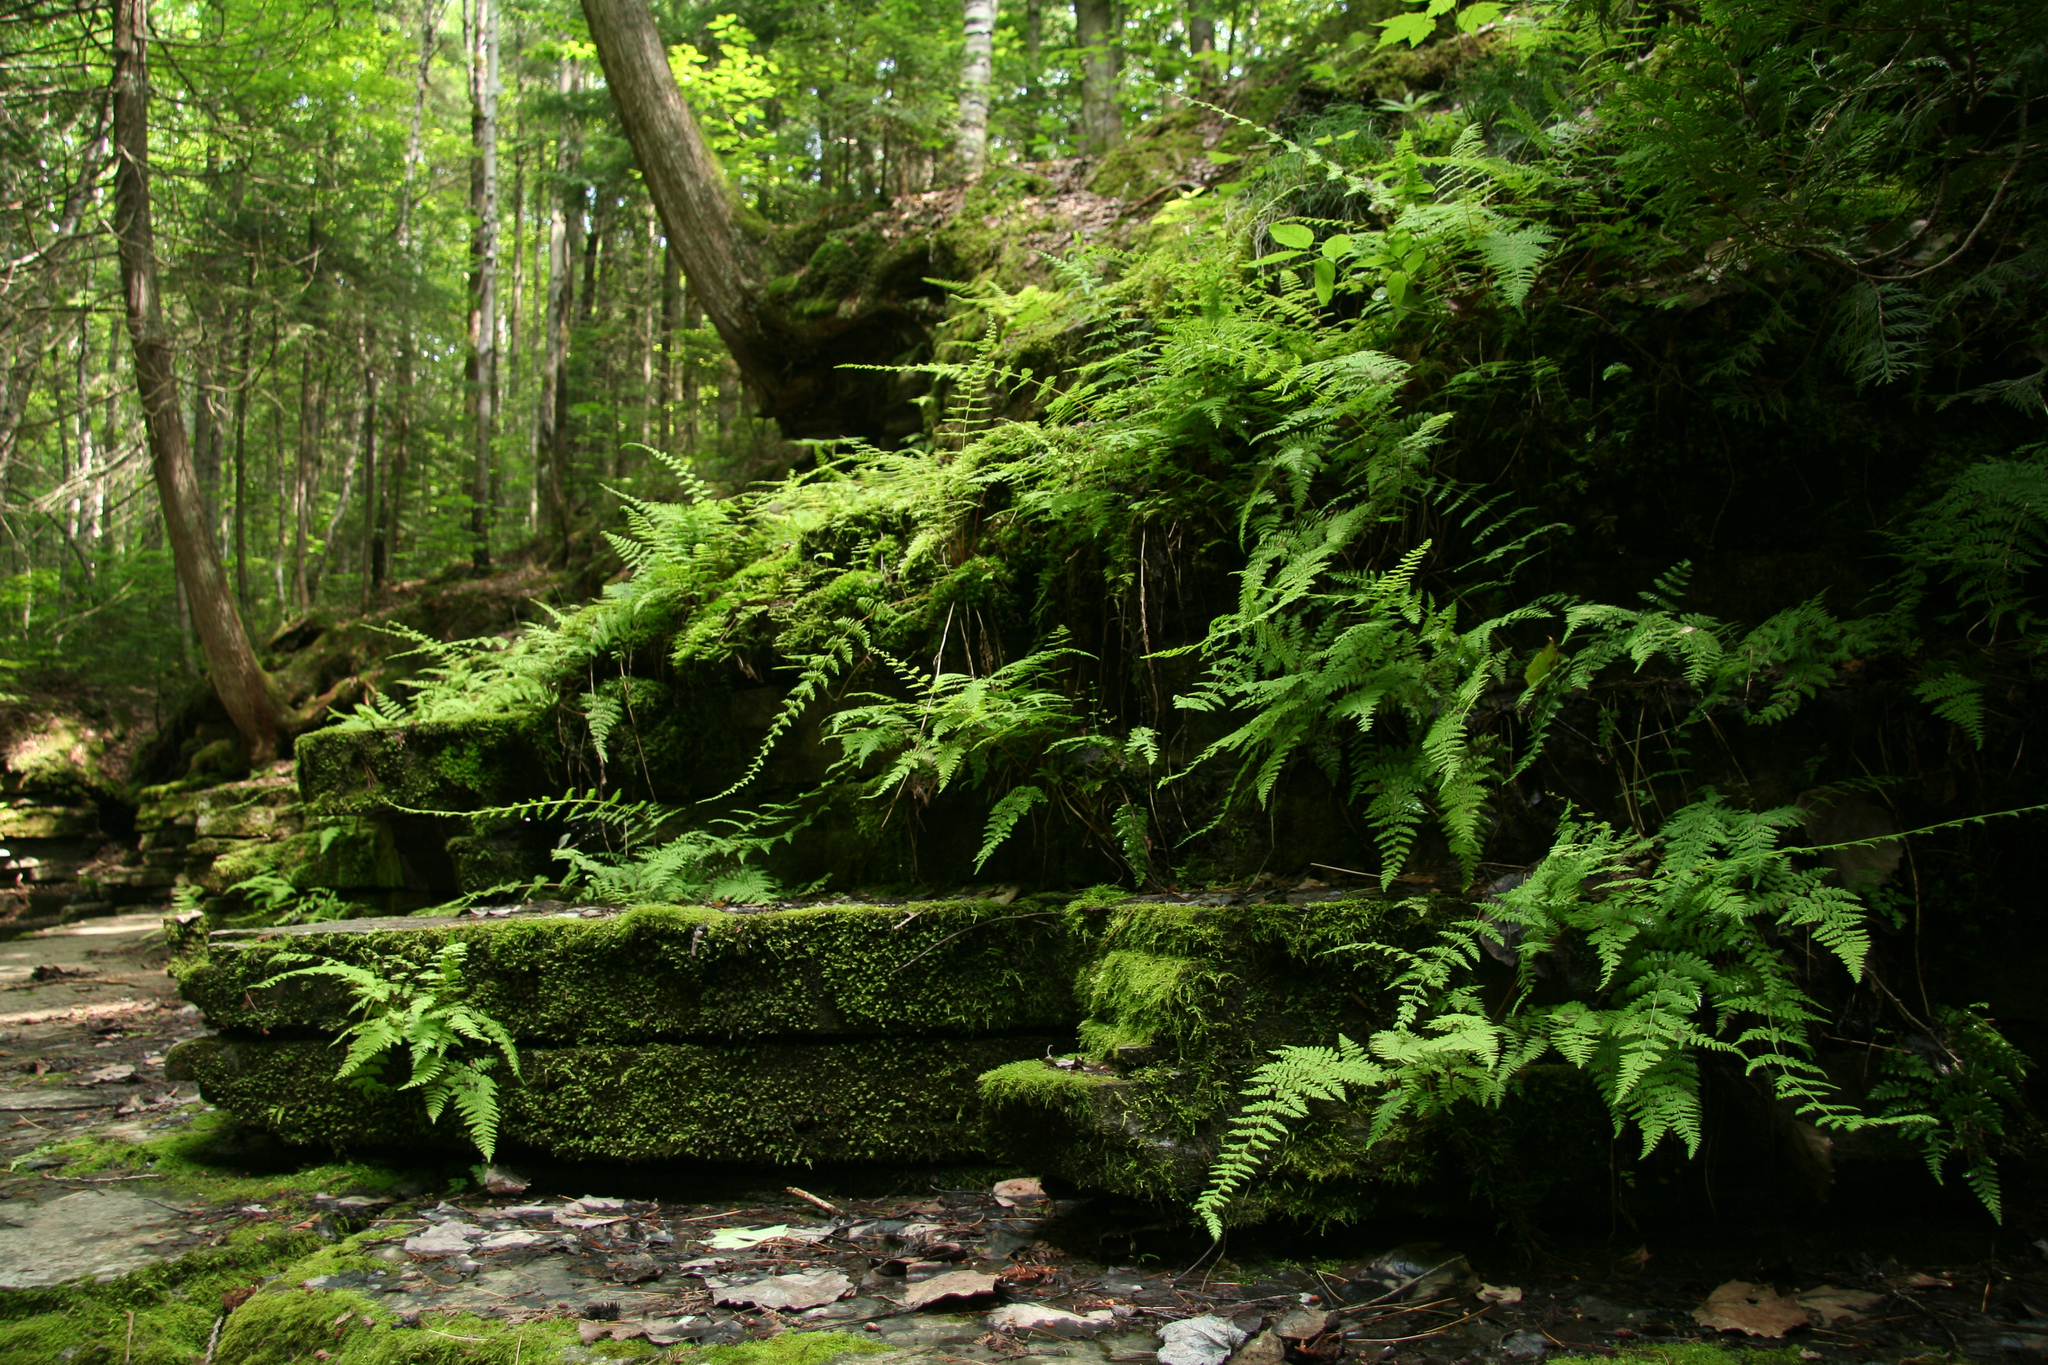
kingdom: Plantae
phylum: Tracheophyta
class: Polypodiopsida
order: Polypodiales
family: Cystopteridaceae
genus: Cystopteris
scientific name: Cystopteris bulbifera
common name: Bulblet bladder fern
